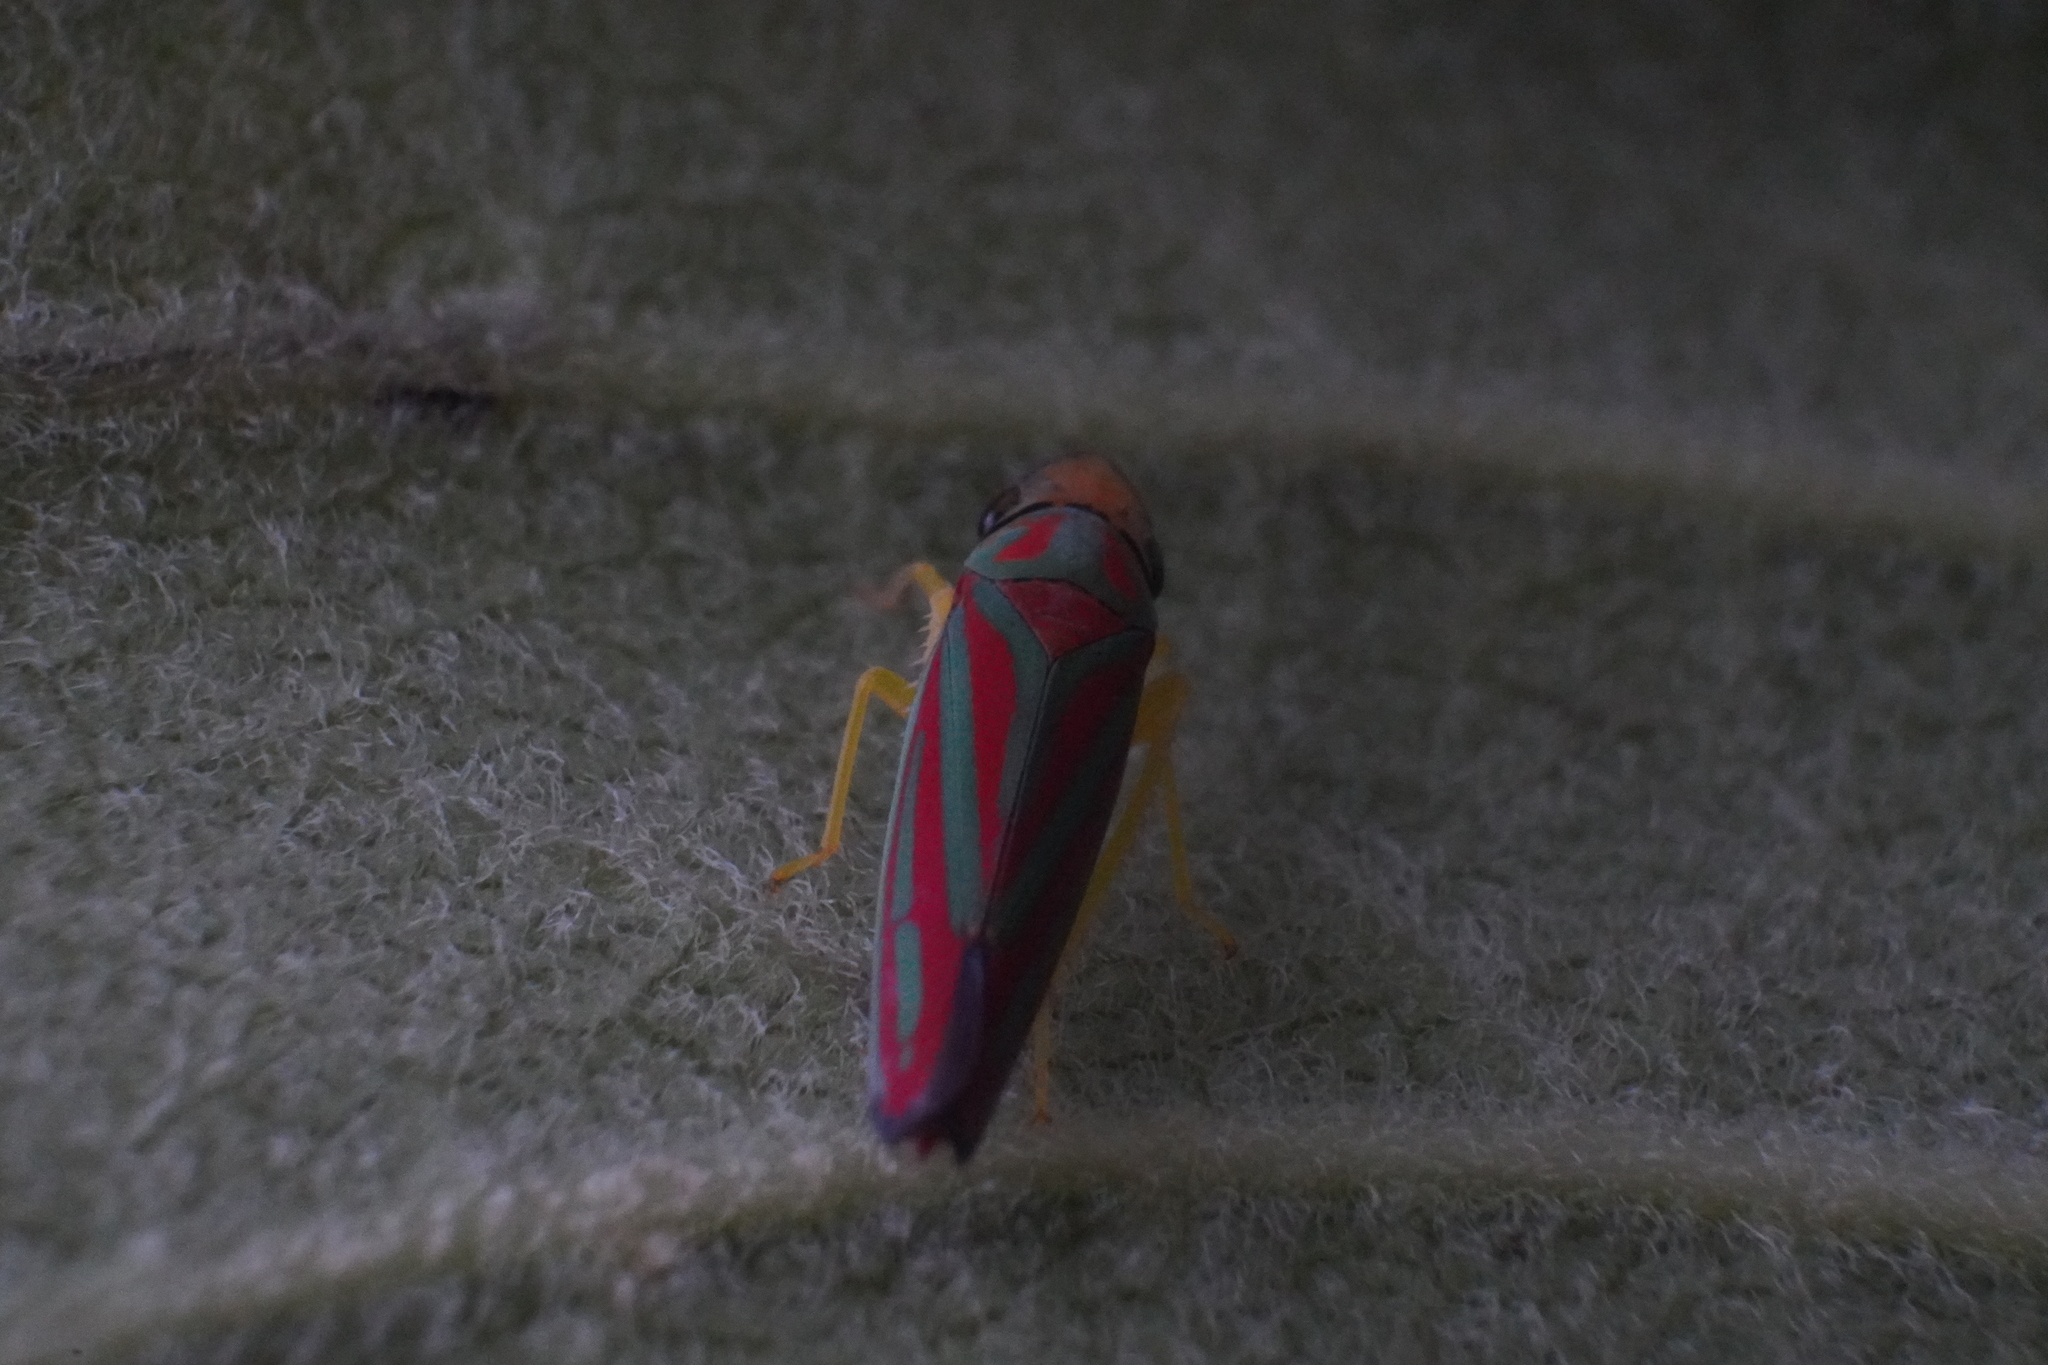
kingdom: Animalia
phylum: Arthropoda
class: Insecta
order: Hemiptera
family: Cicadellidae
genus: Graphocephala
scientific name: Graphocephala coccinea
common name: Candy-striped leafhopper
